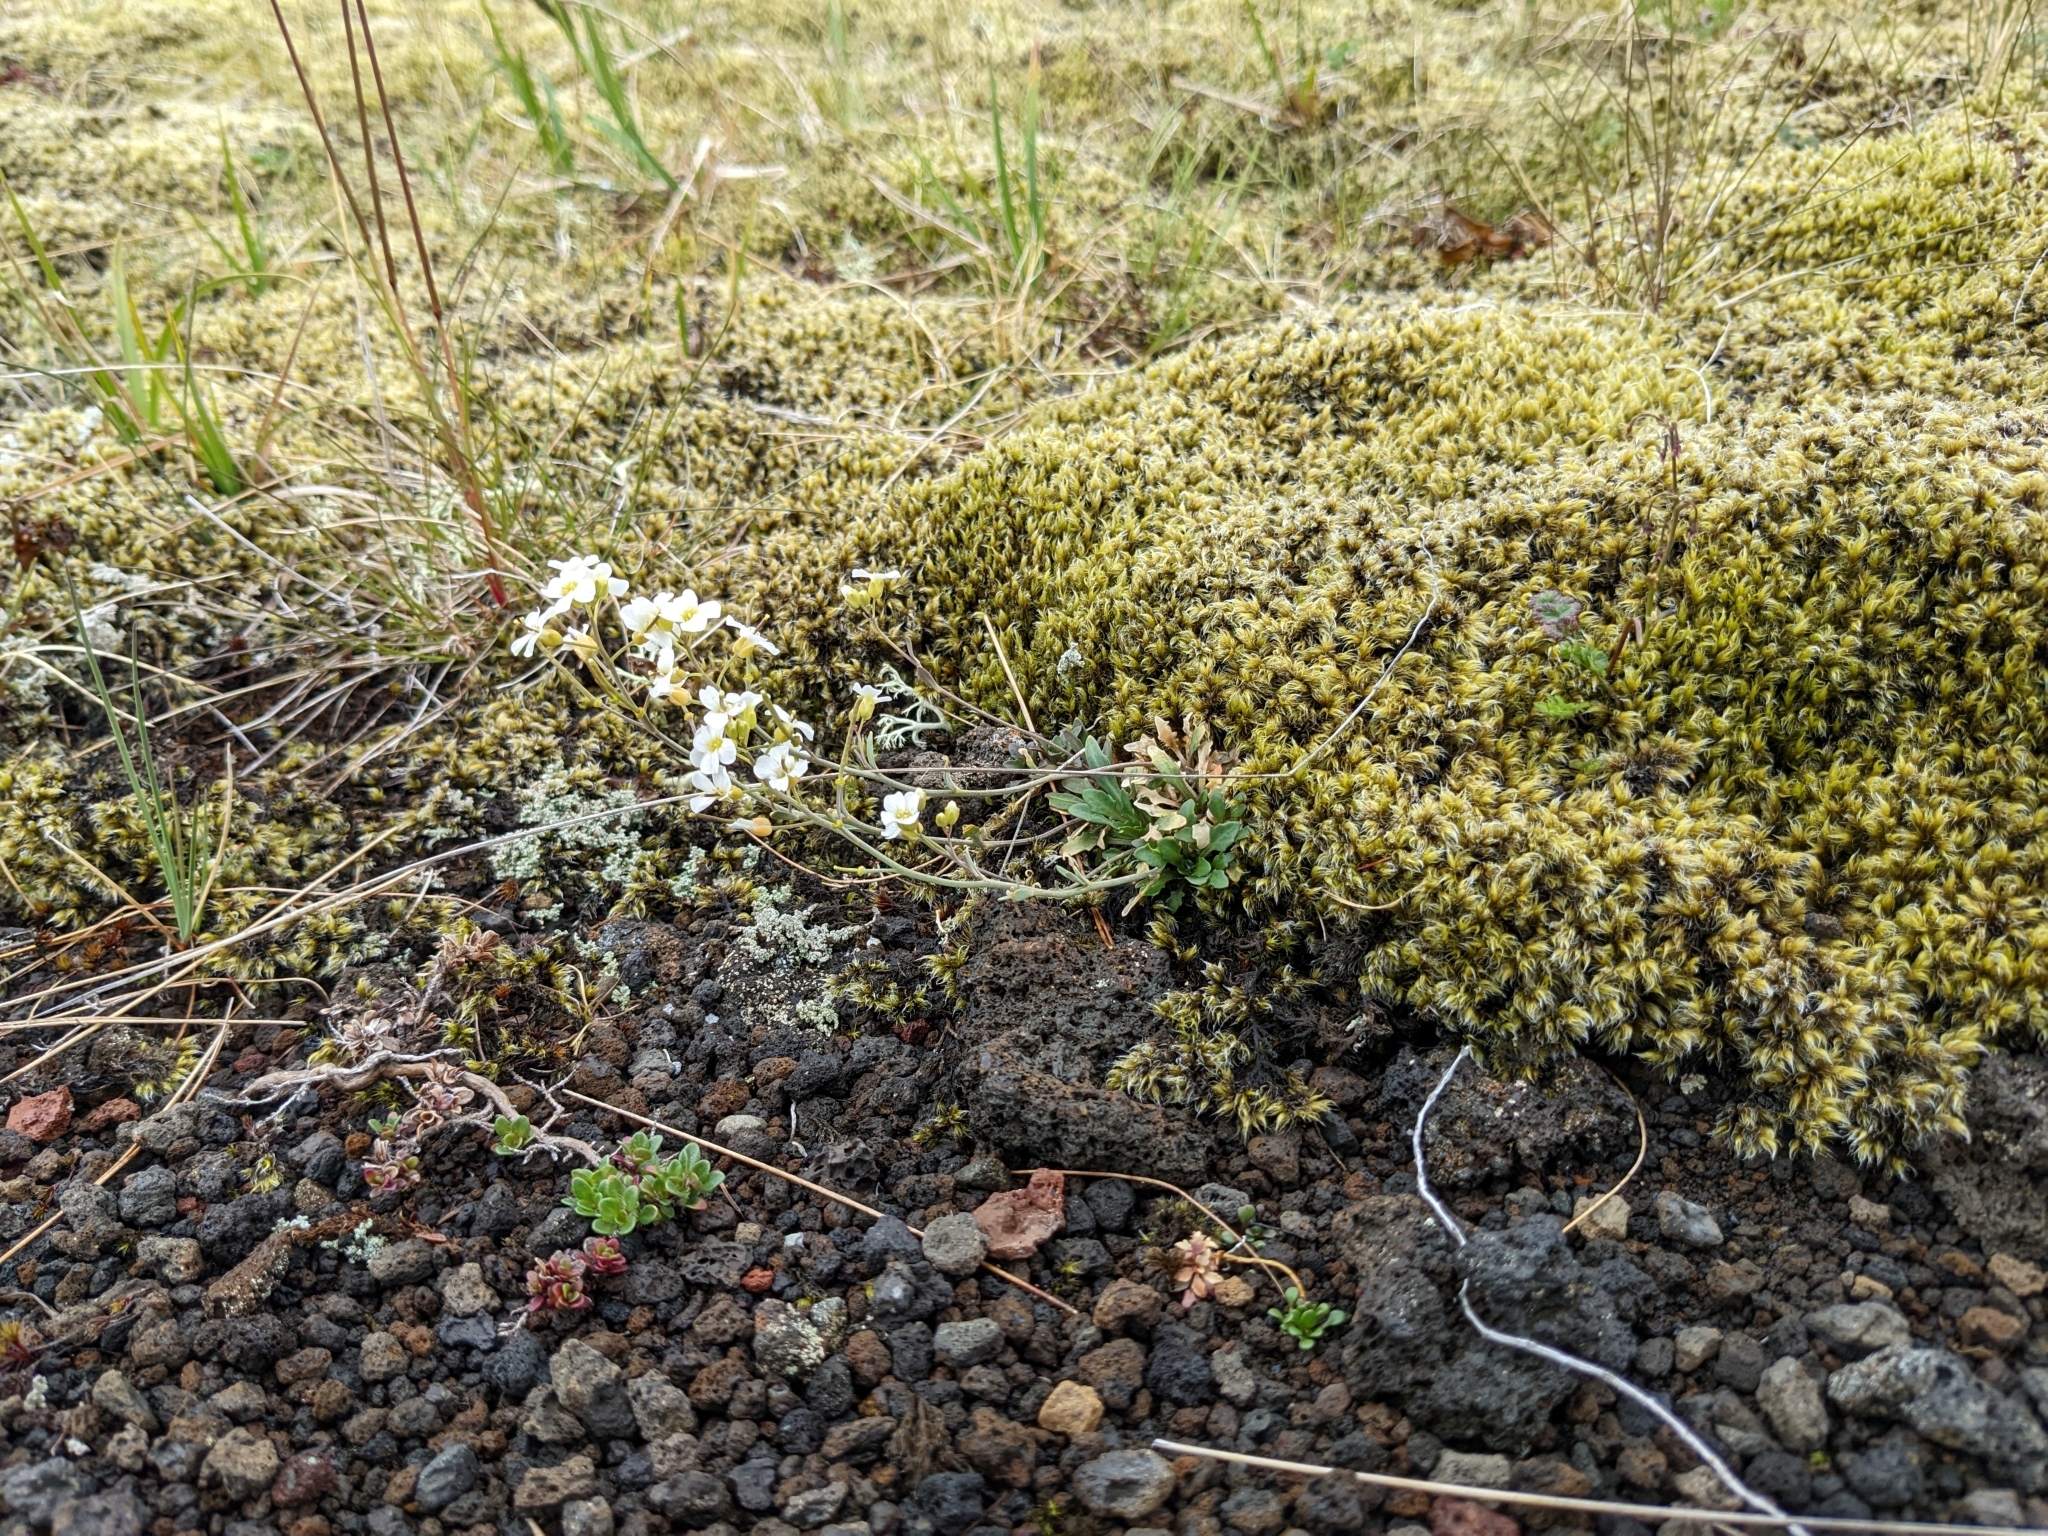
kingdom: Plantae
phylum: Tracheophyta
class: Magnoliopsida
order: Brassicales
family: Brassicaceae
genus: Arabidopsis
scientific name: Arabidopsis lyrata
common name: Lyrate rockcress
